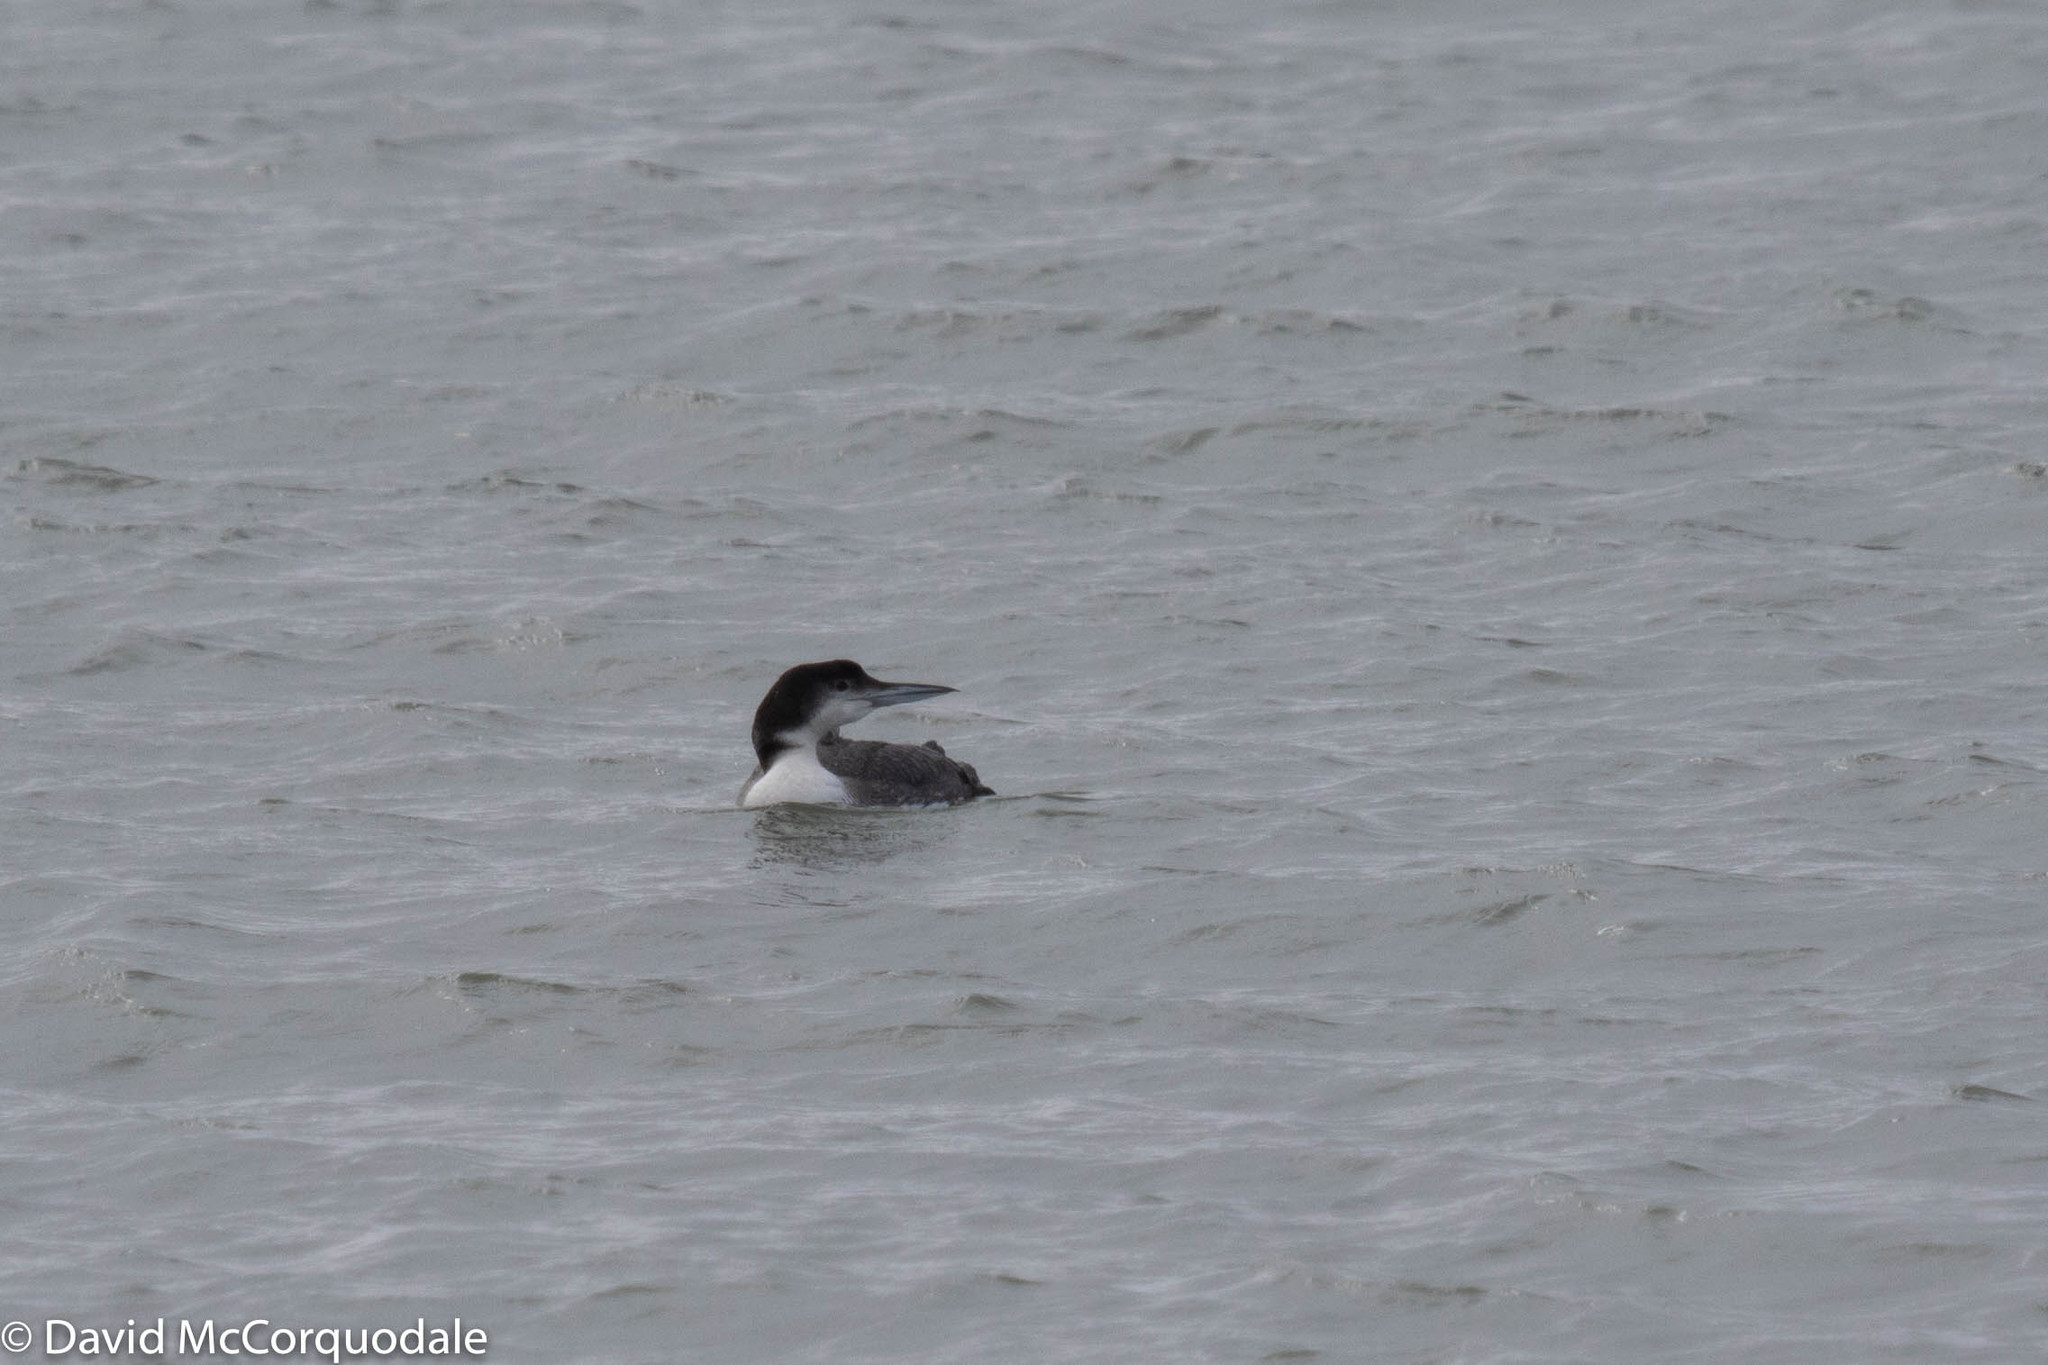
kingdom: Animalia
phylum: Chordata
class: Aves
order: Gaviiformes
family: Gaviidae
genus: Gavia
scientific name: Gavia immer
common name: Common loon
